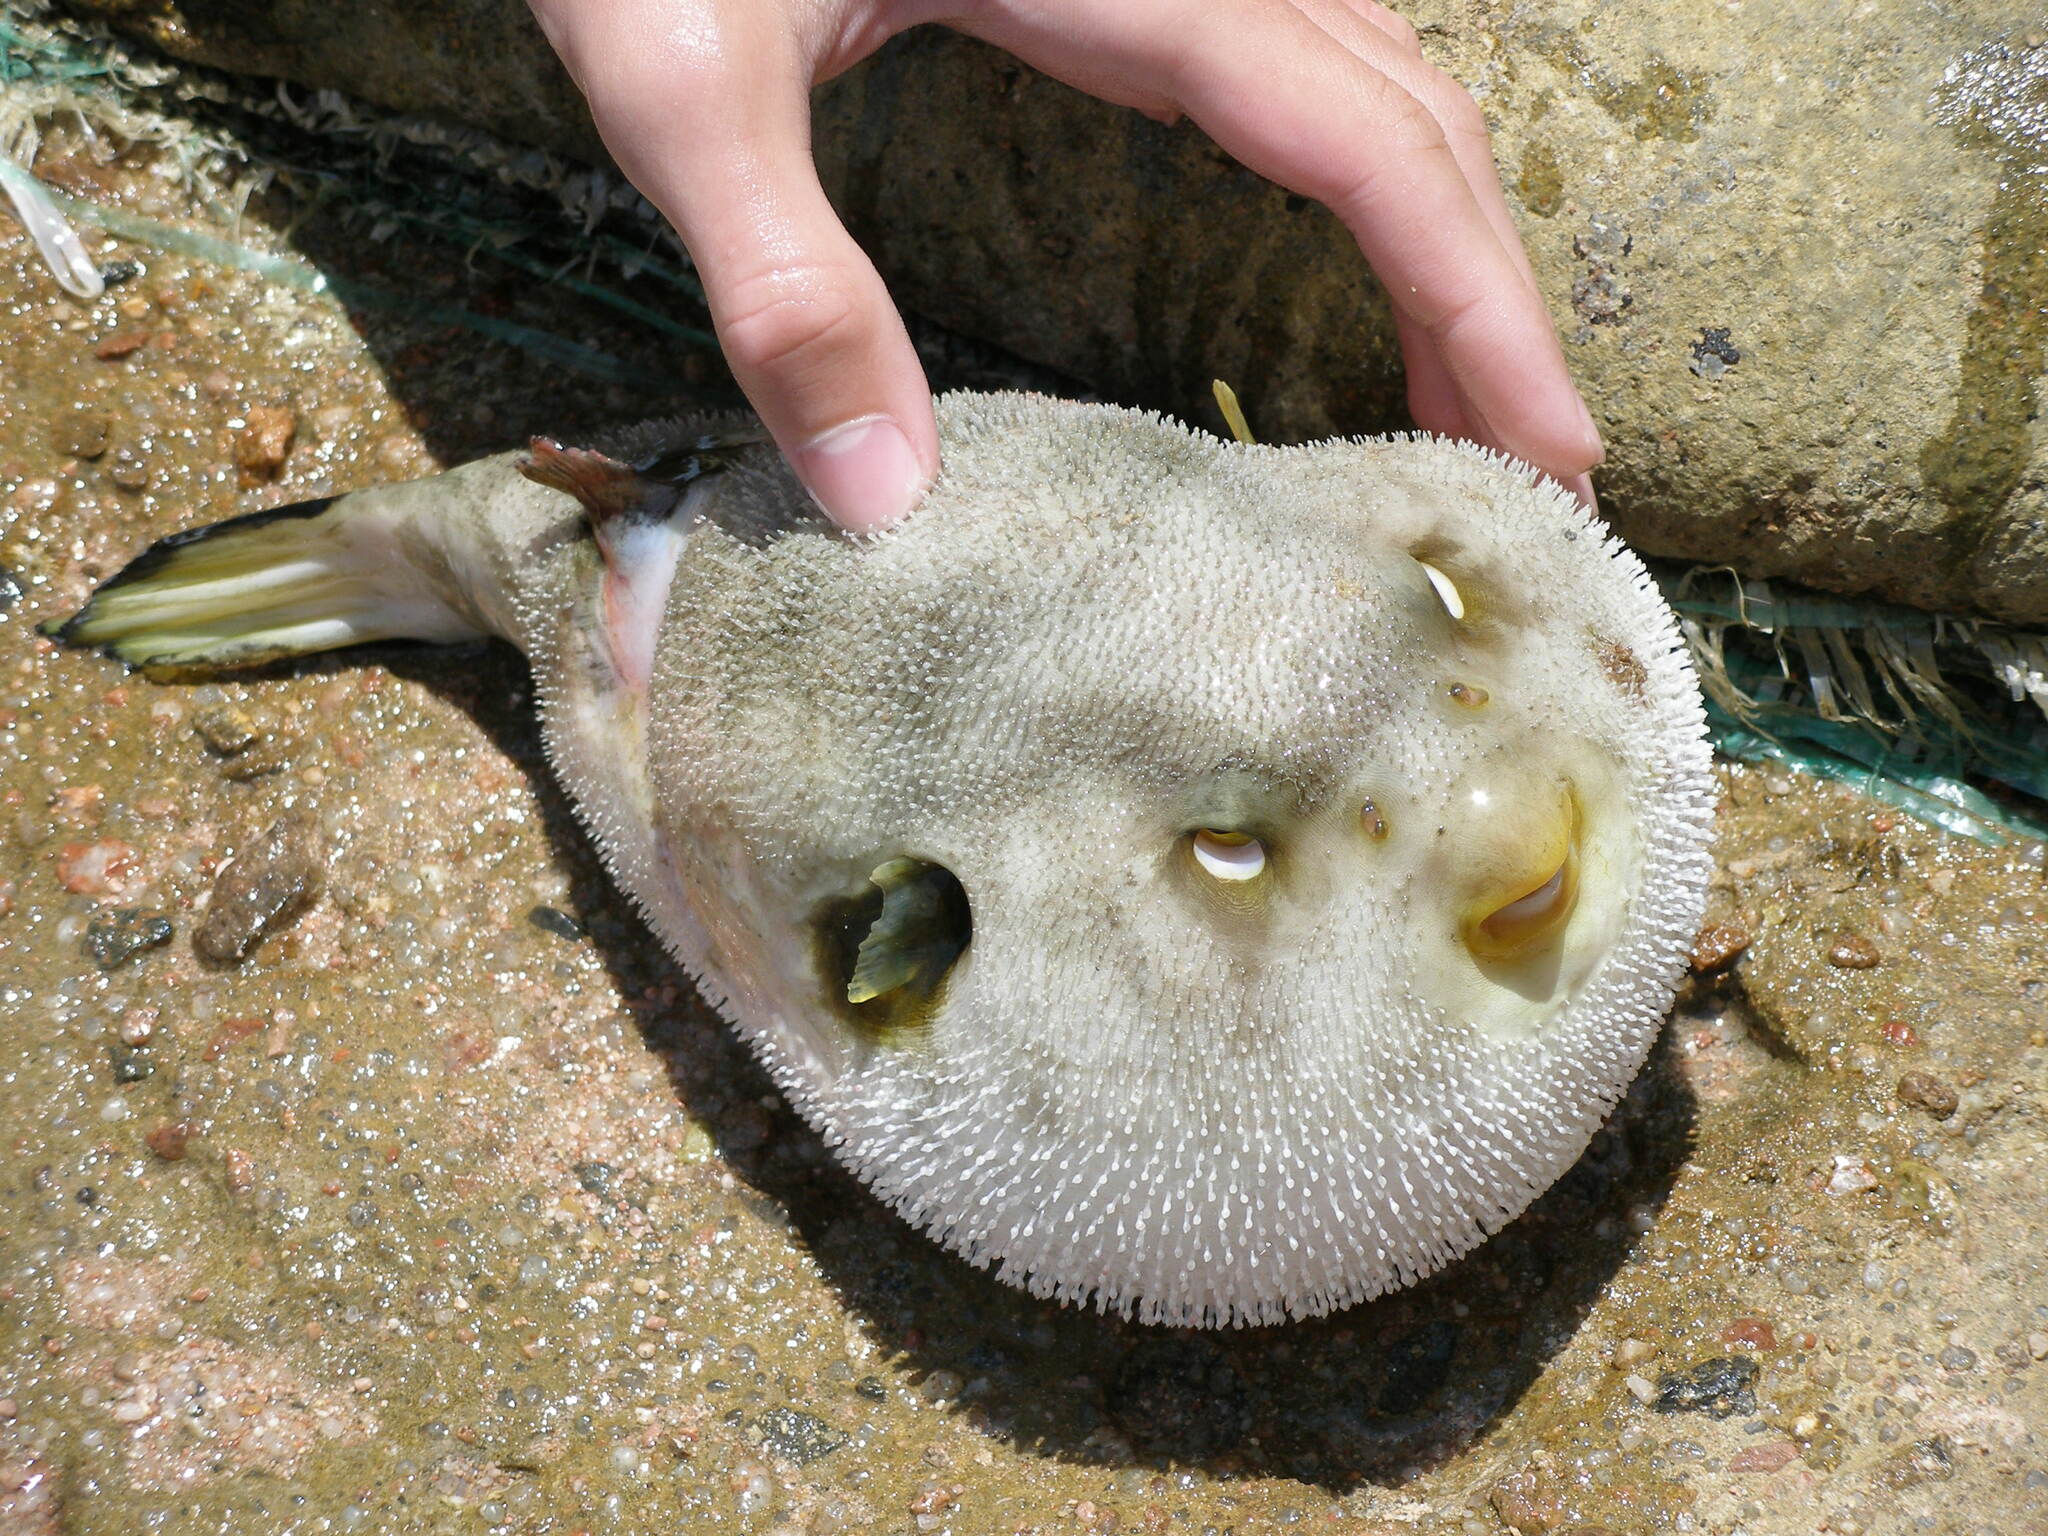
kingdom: Animalia
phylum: Chordata
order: Tetraodontiformes
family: Tetraodontidae
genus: Arothron
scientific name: Arothron immaculatus
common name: Blackedged blaasop
